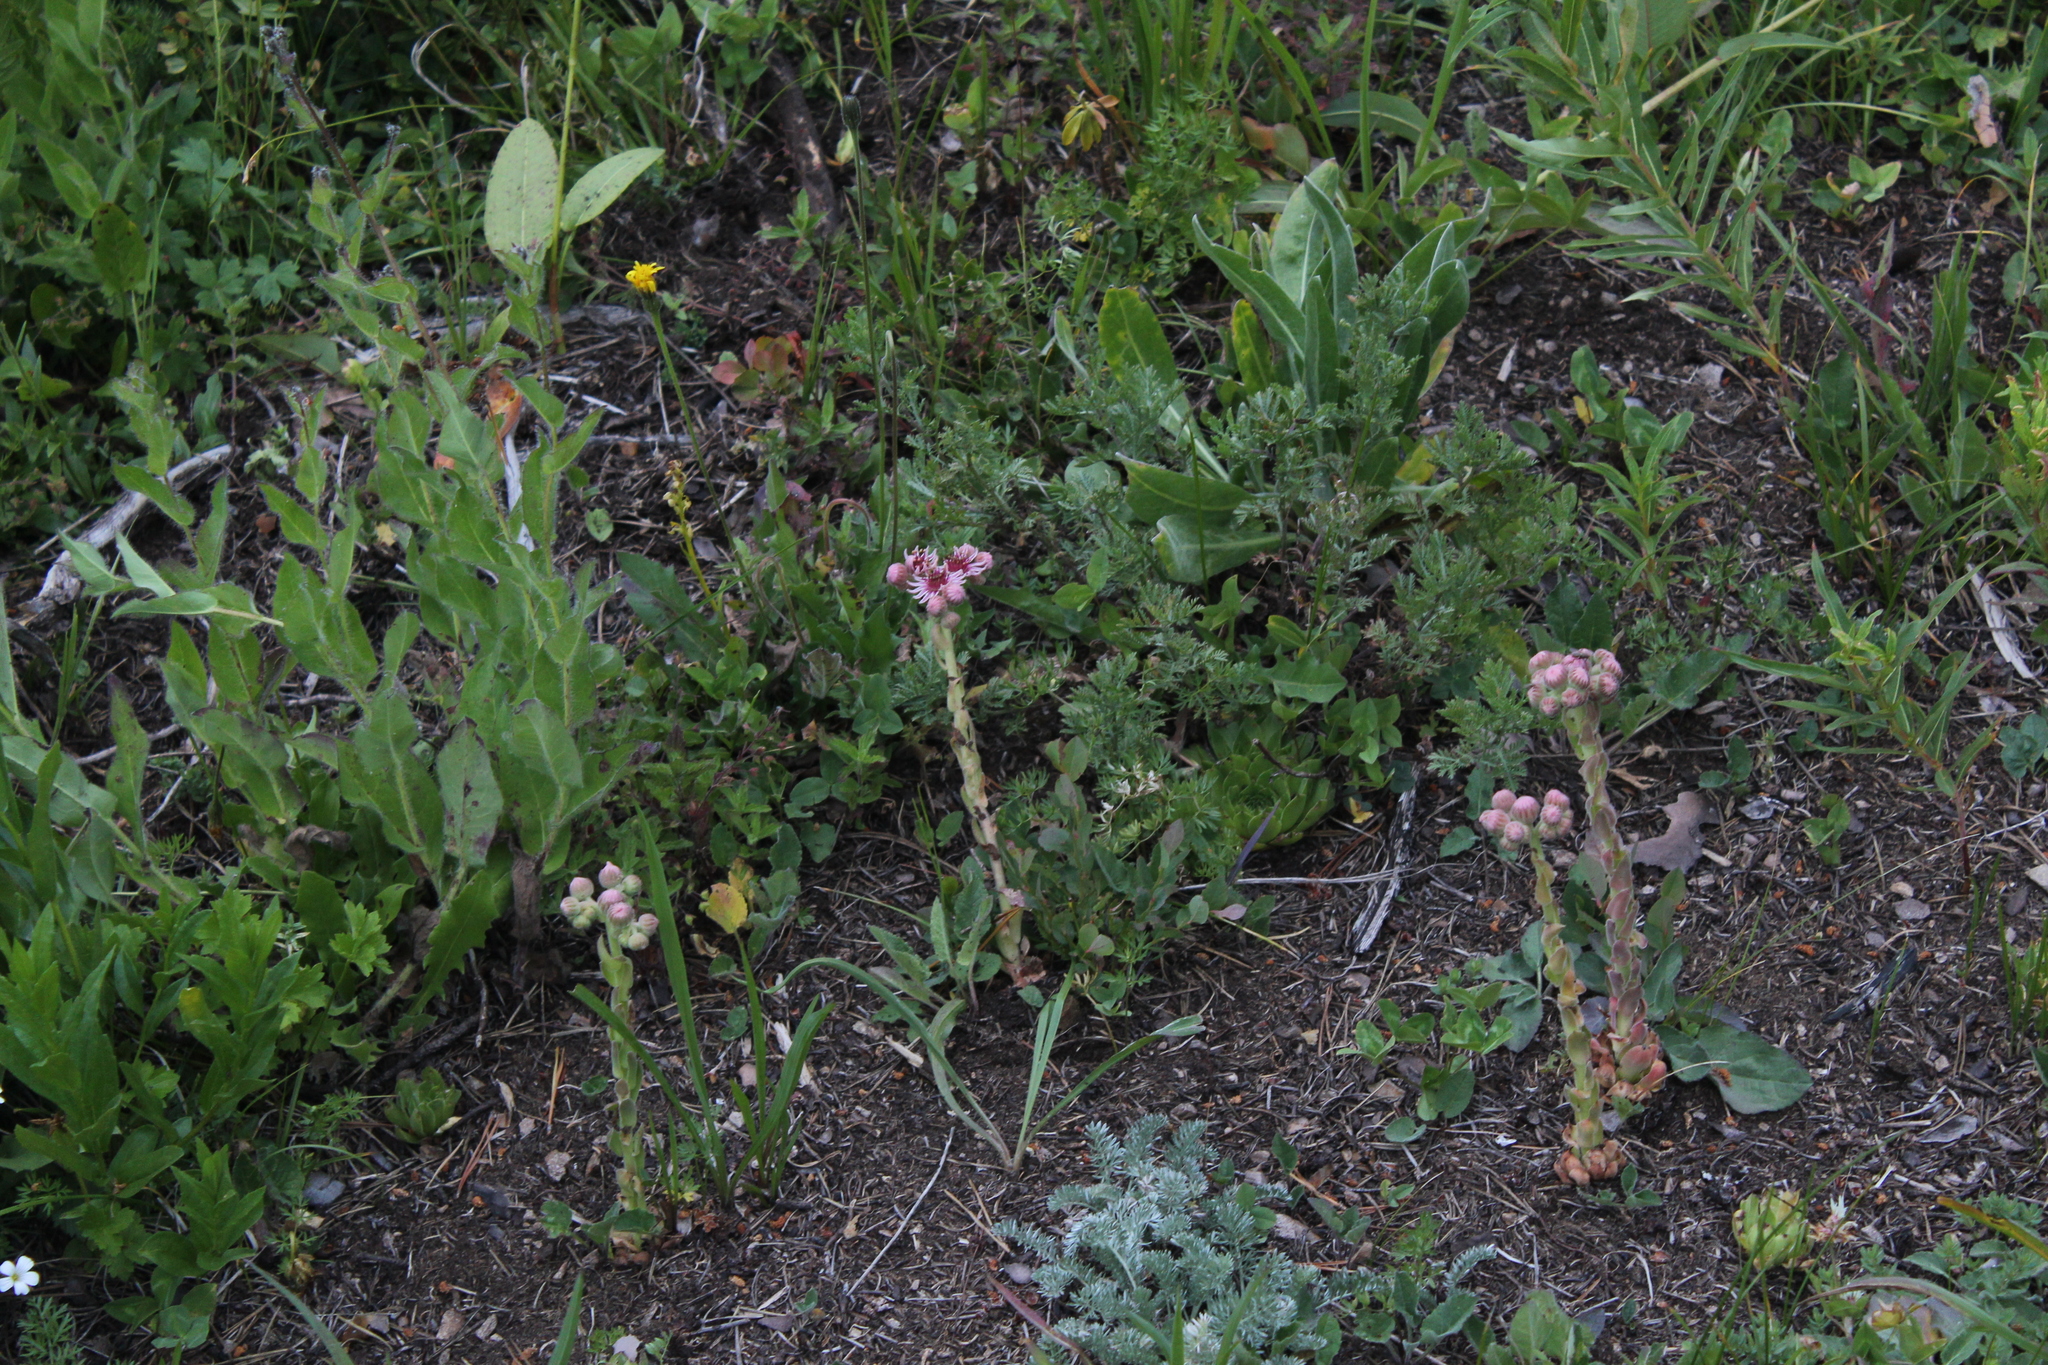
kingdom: Plantae
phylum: Tracheophyta
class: Magnoliopsida
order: Saxifragales
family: Crassulaceae
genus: Sempervivum
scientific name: Sempervivum caucasicum
